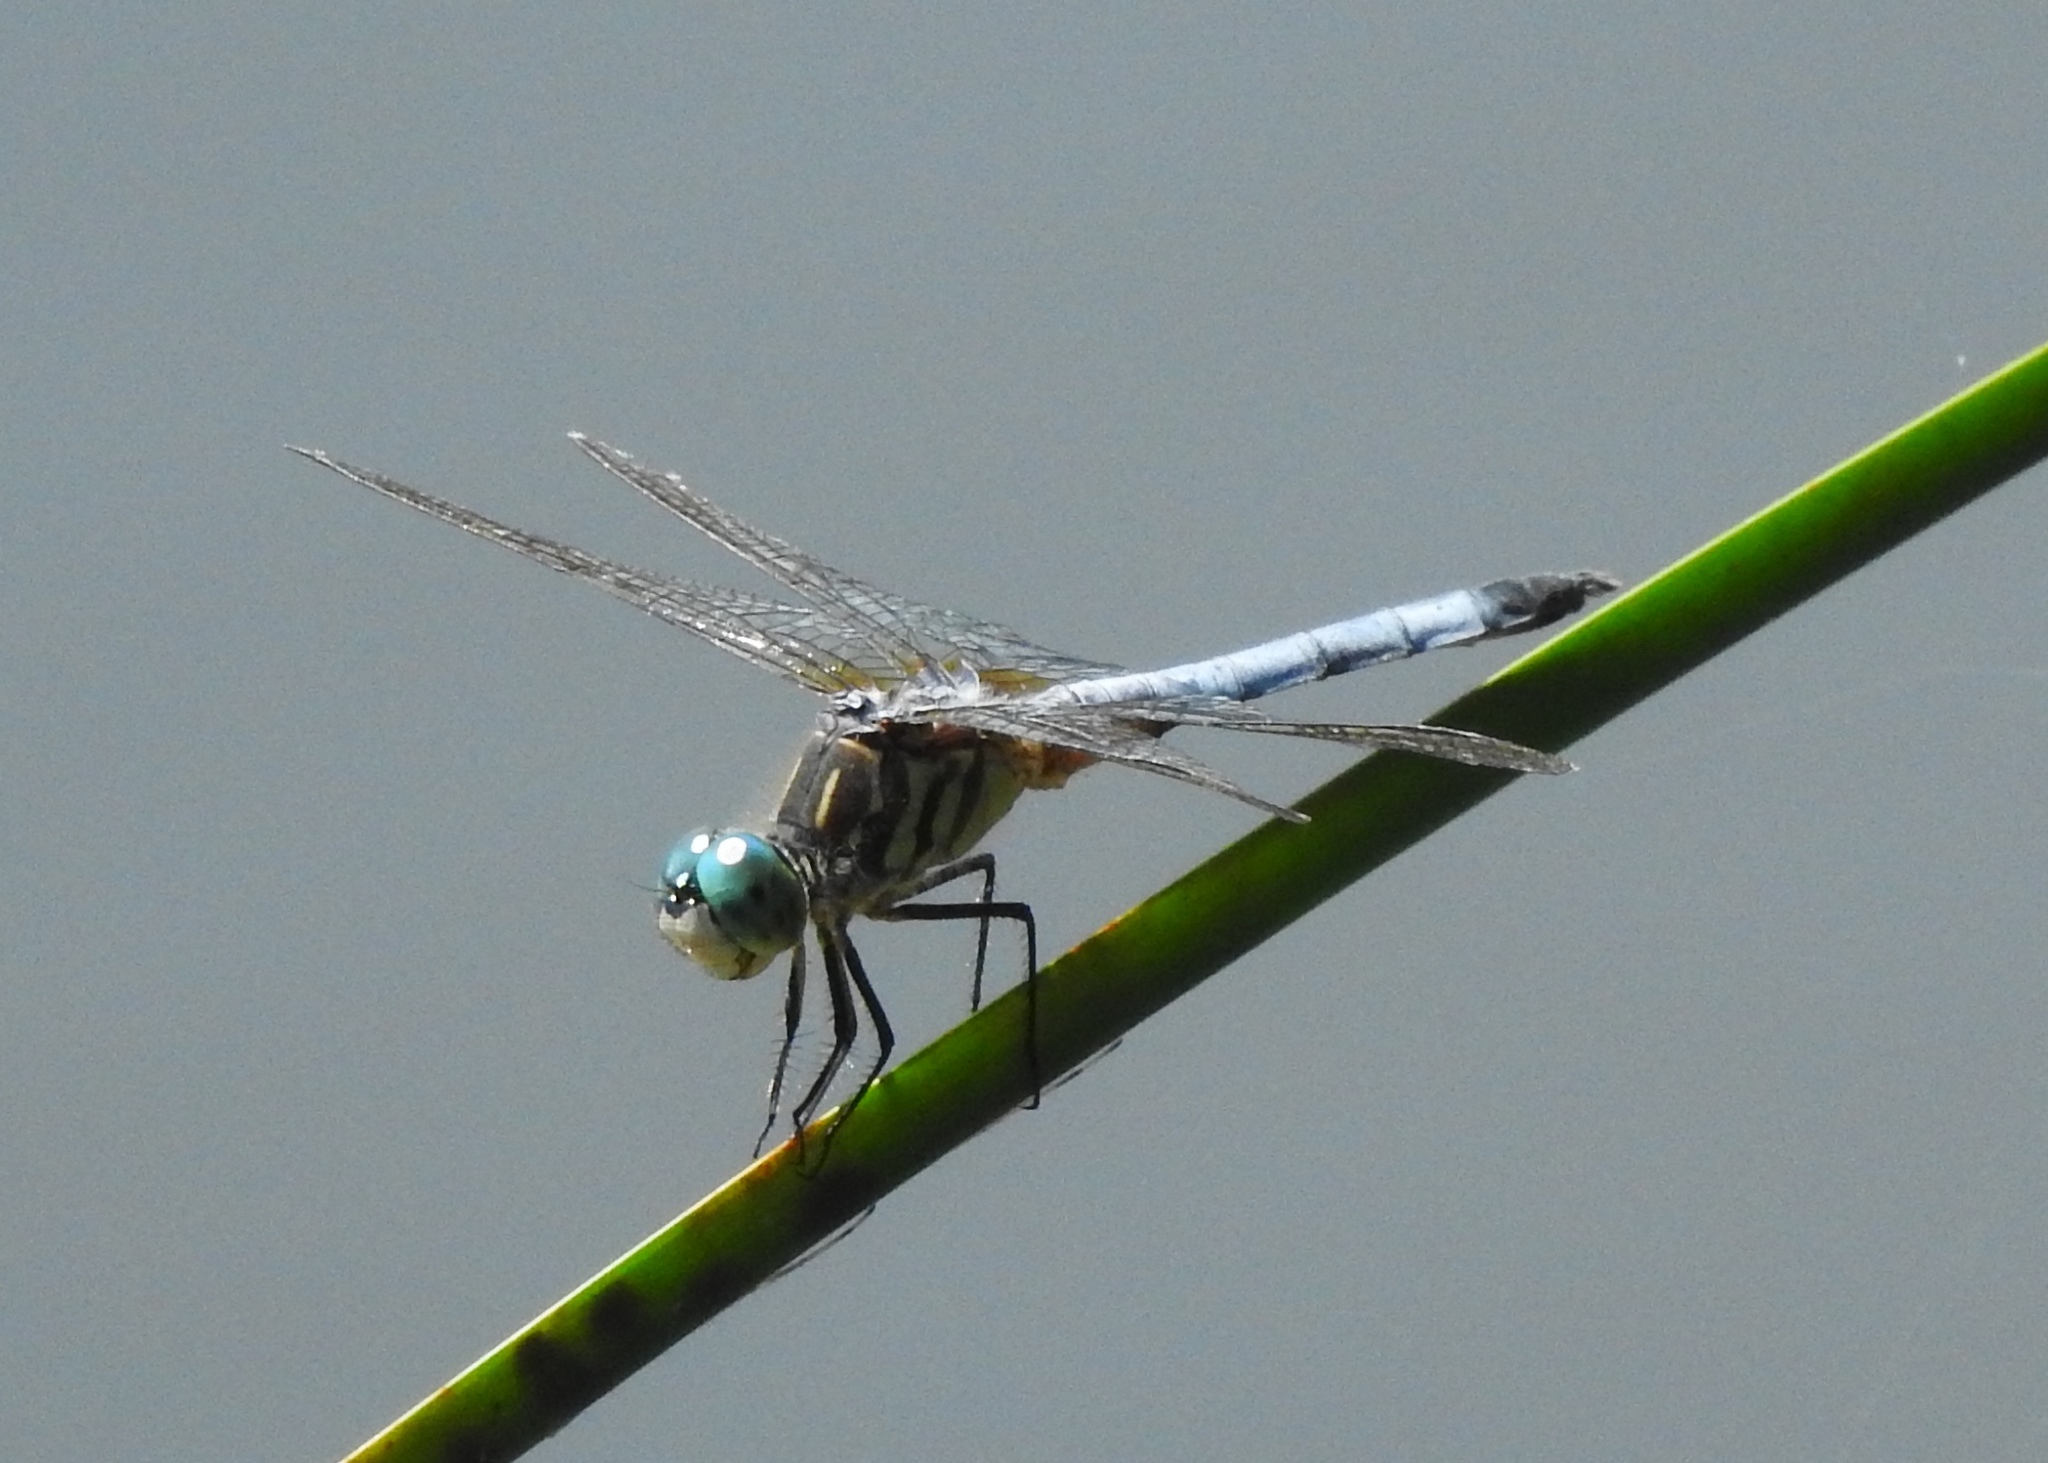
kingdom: Animalia
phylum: Arthropoda
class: Insecta
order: Odonata
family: Libellulidae
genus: Pachydiplax
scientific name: Pachydiplax longipennis
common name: Blue dasher
